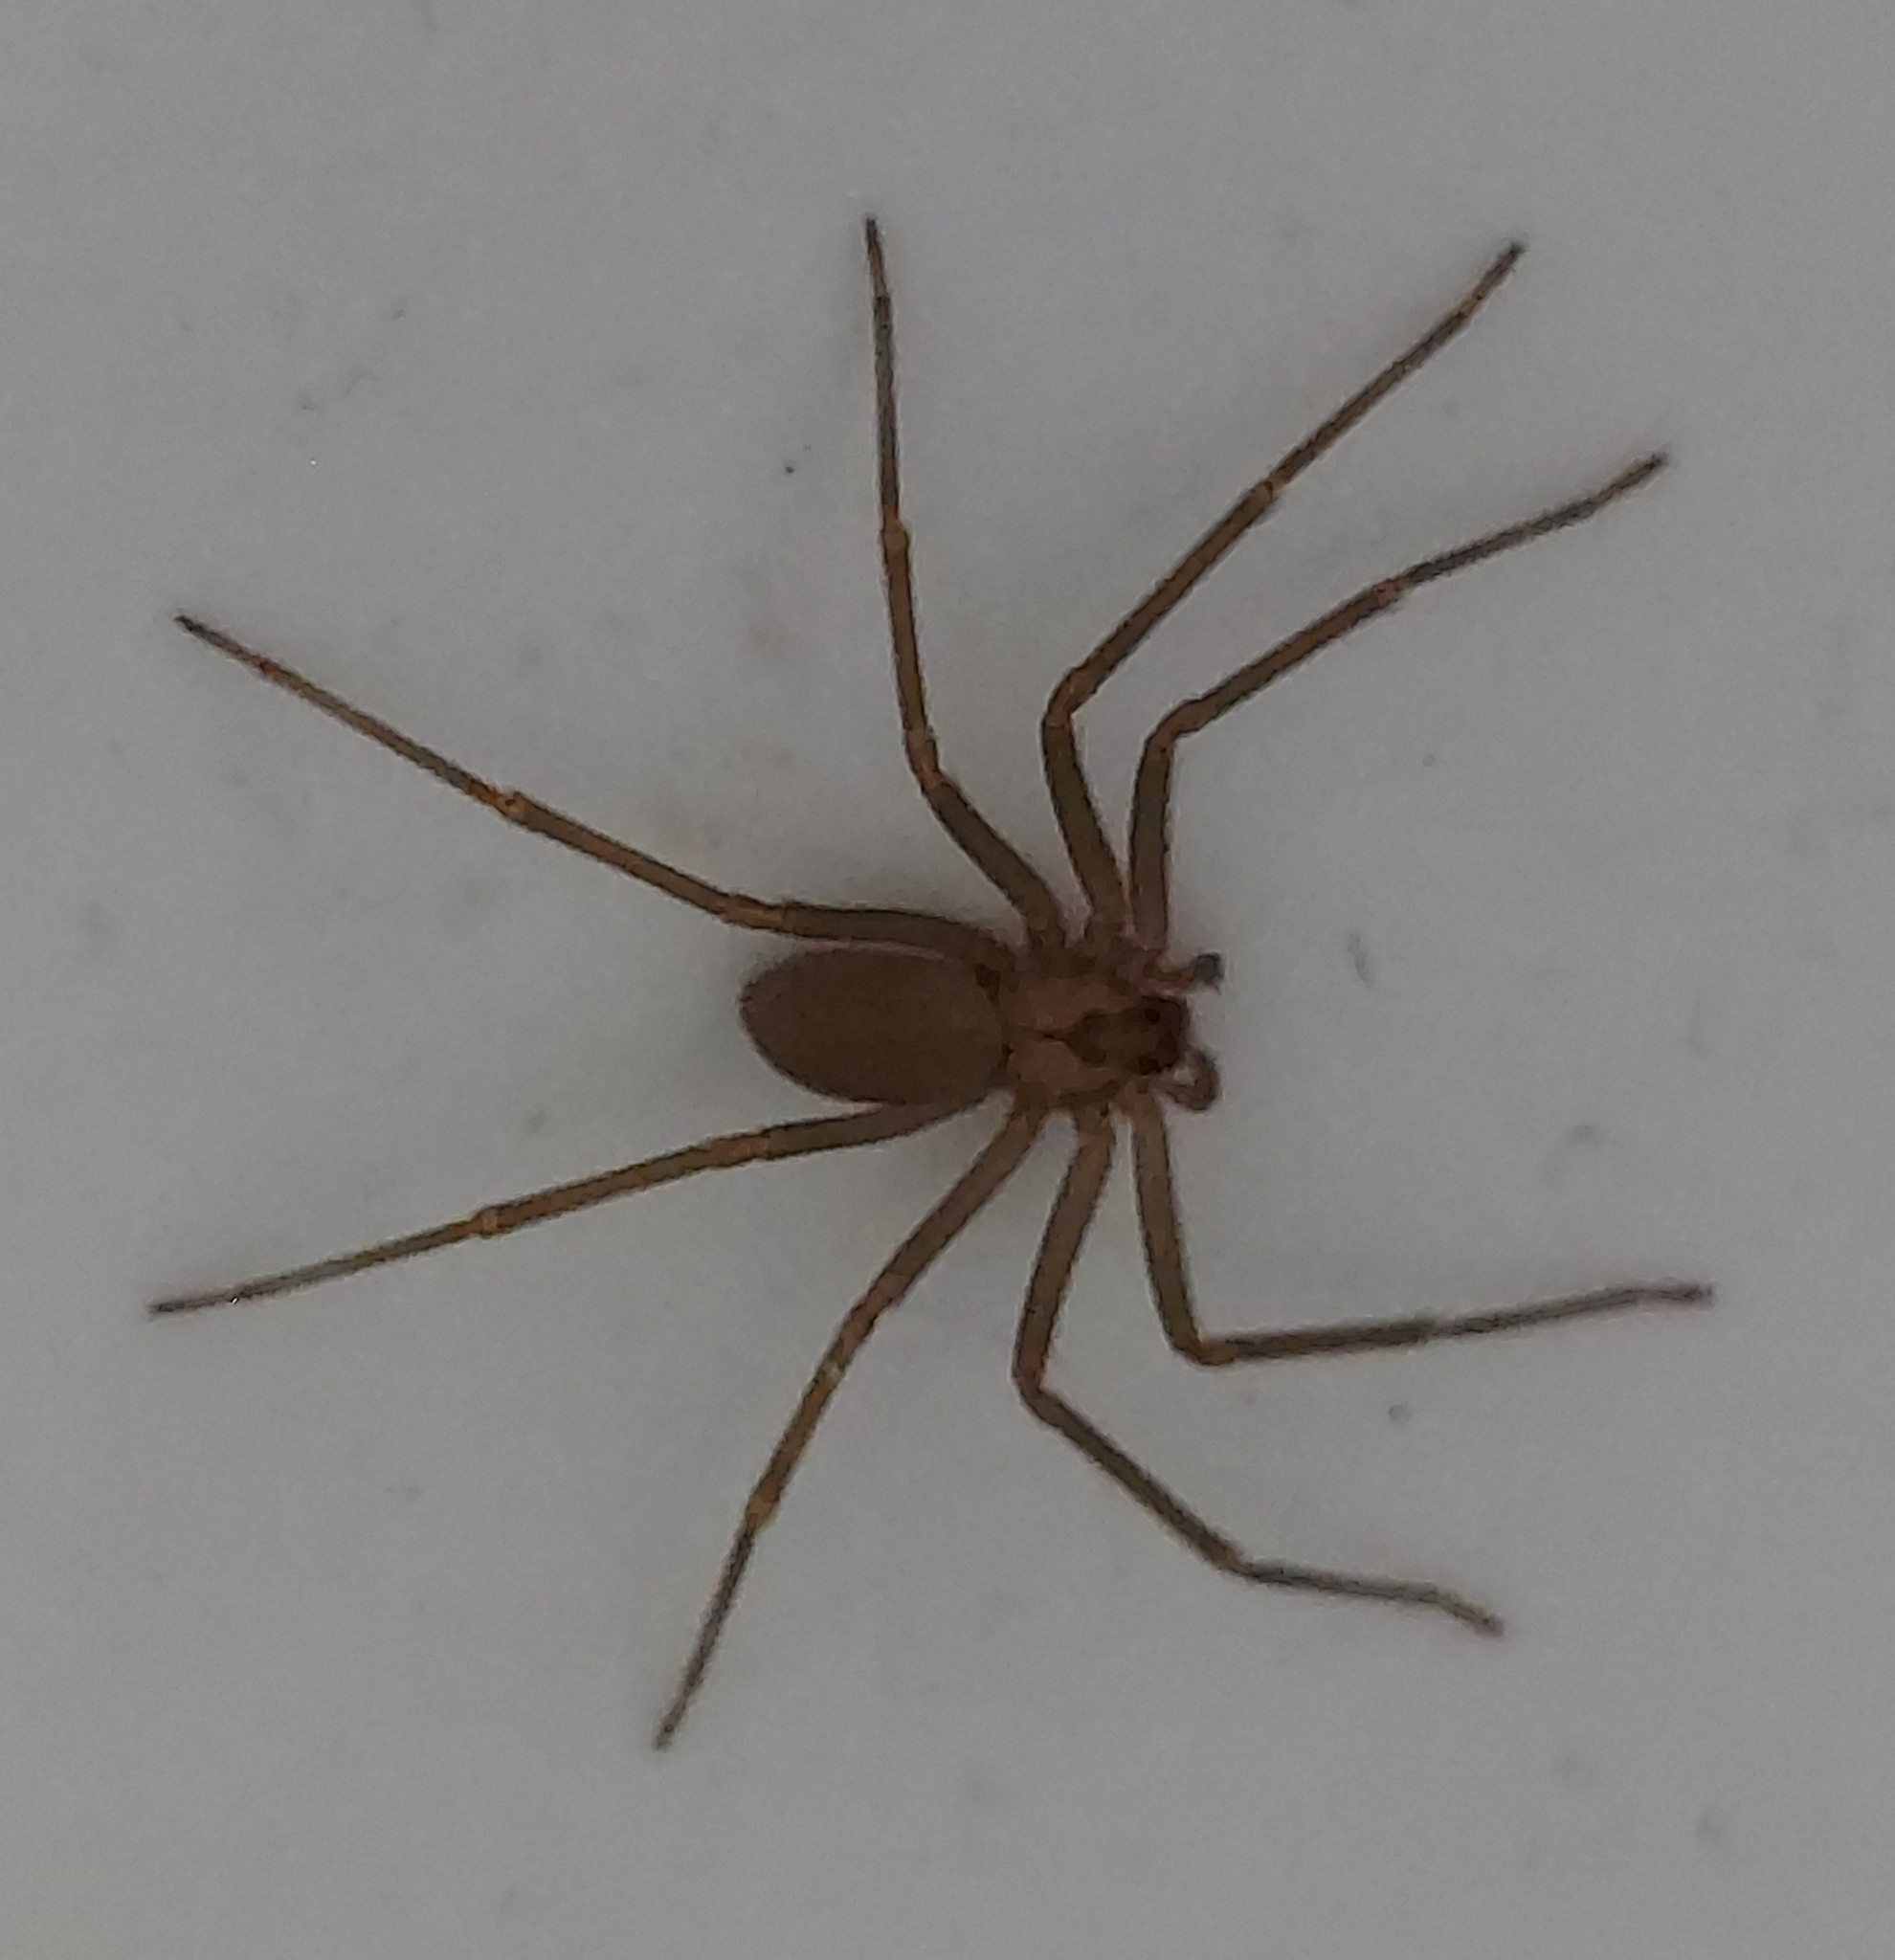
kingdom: Animalia
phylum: Arthropoda
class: Arachnida
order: Araneae
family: Sicariidae
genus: Loxosceles
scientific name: Loxosceles reclusa
